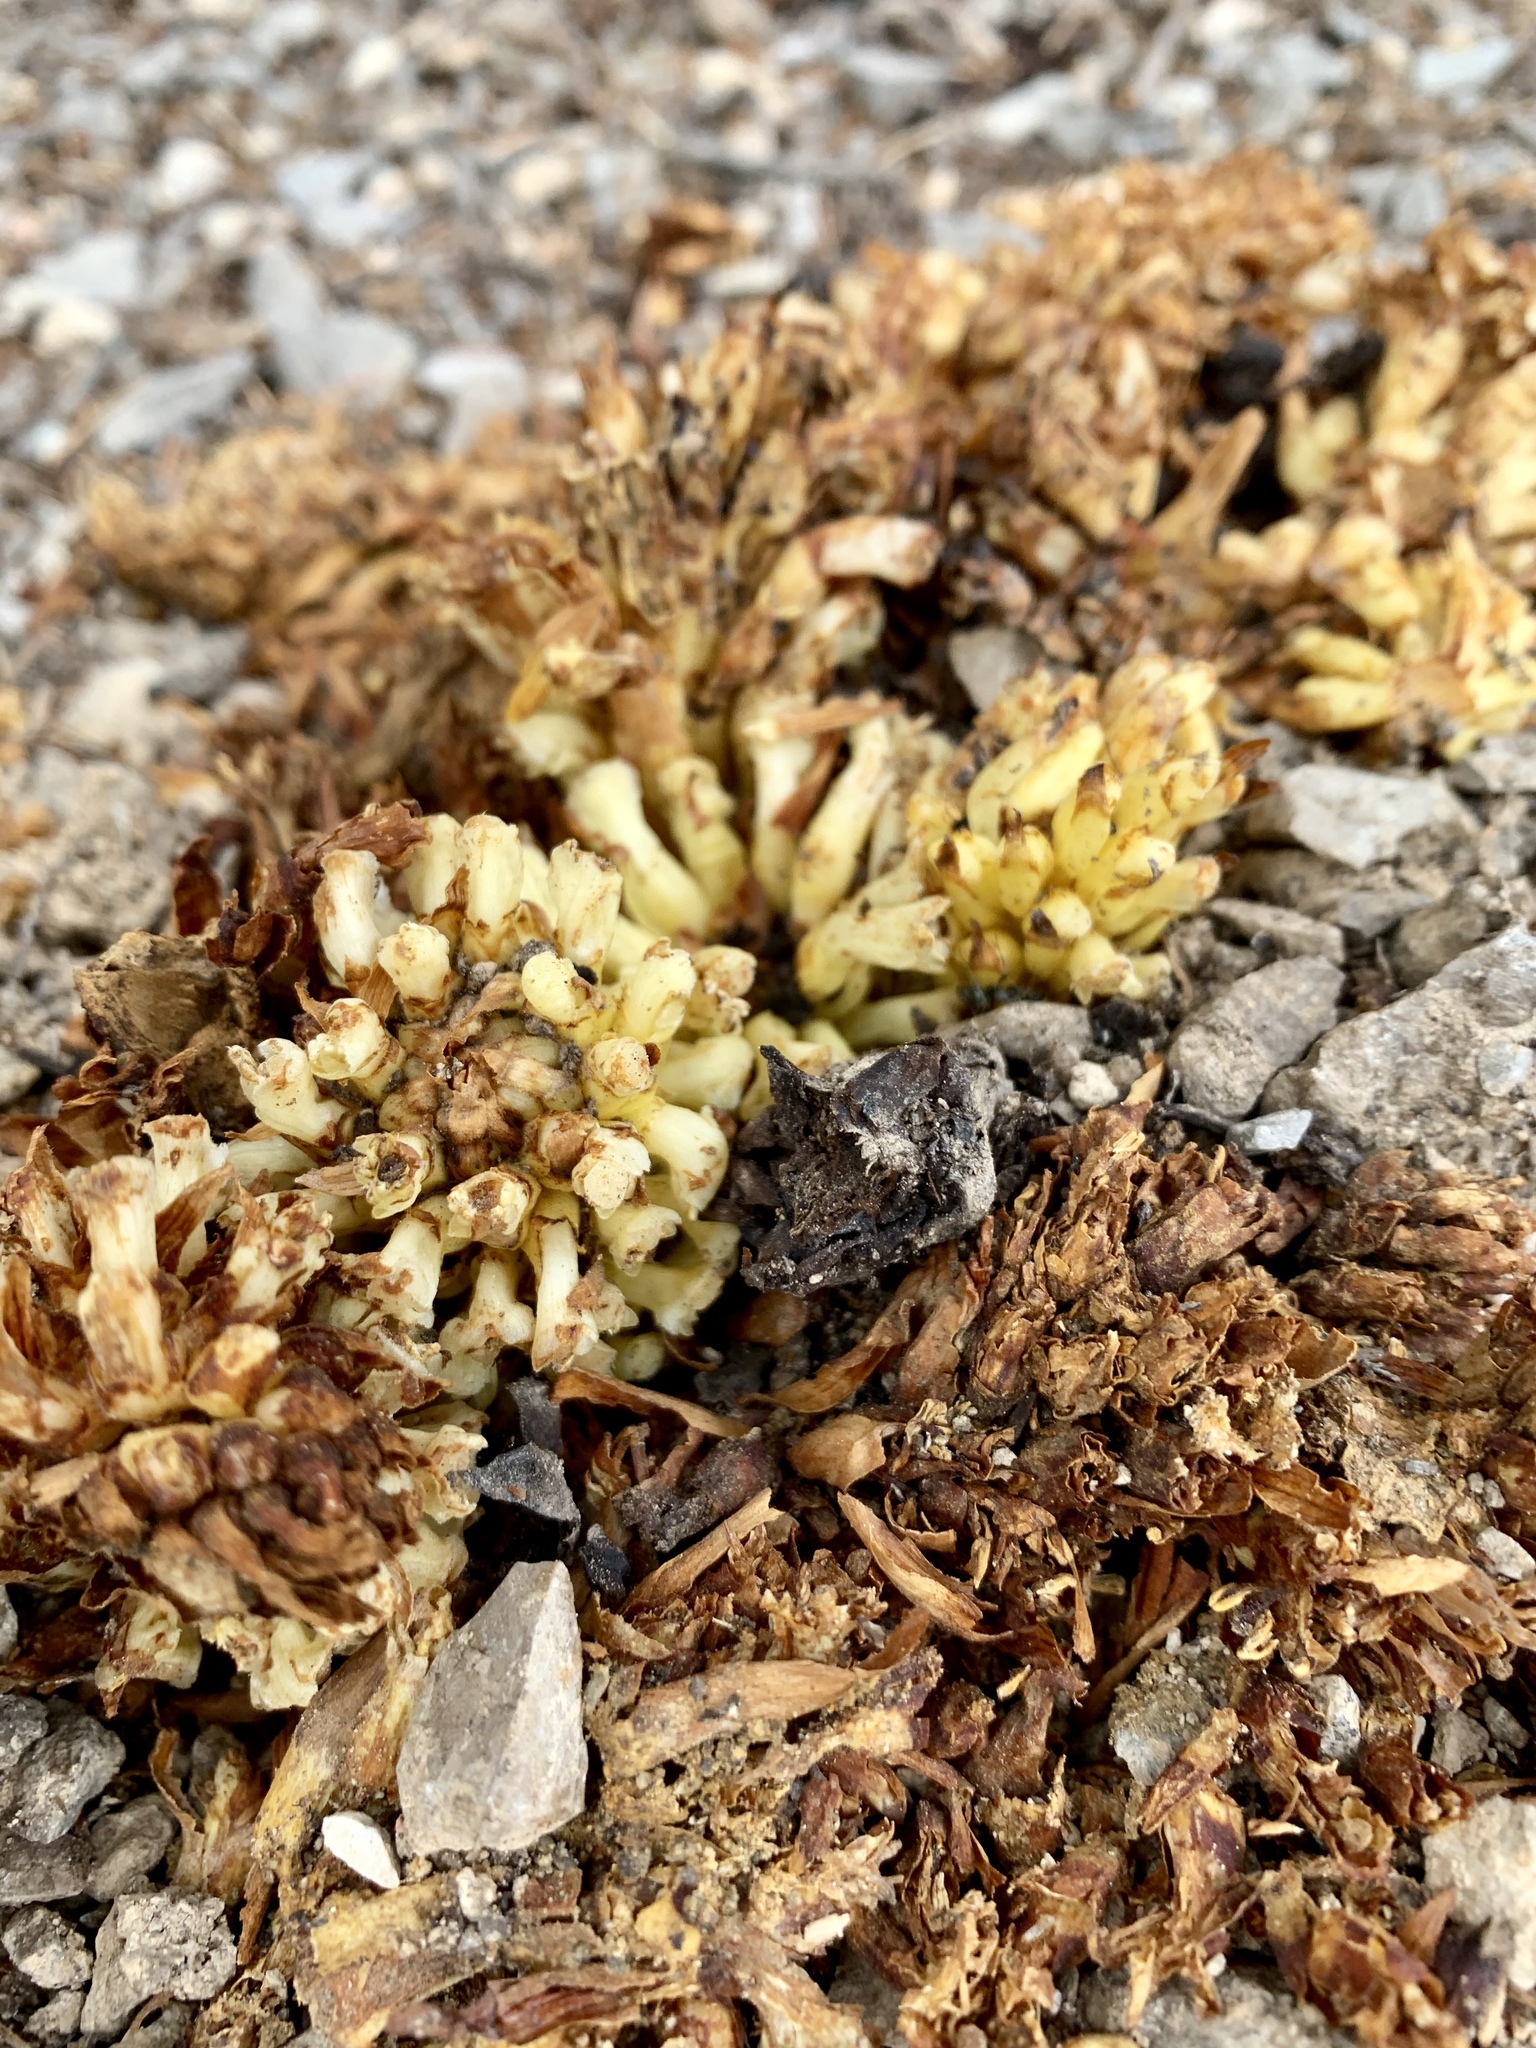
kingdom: Plantae
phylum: Tracheophyta
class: Magnoliopsida
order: Lamiales
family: Orobanchaceae
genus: Conopholis
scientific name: Conopholis alpina
